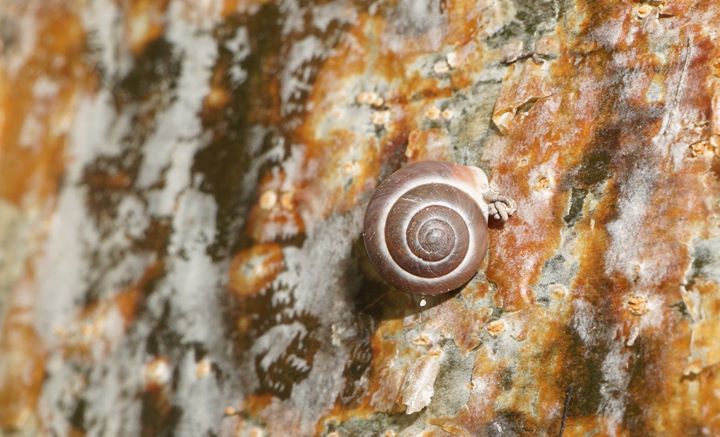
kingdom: Animalia
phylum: Mollusca
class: Gastropoda
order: Stylommatophora
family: Camaenidae
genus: Bradybaena
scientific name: Bradybaena similaris
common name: Asian trampsnail
